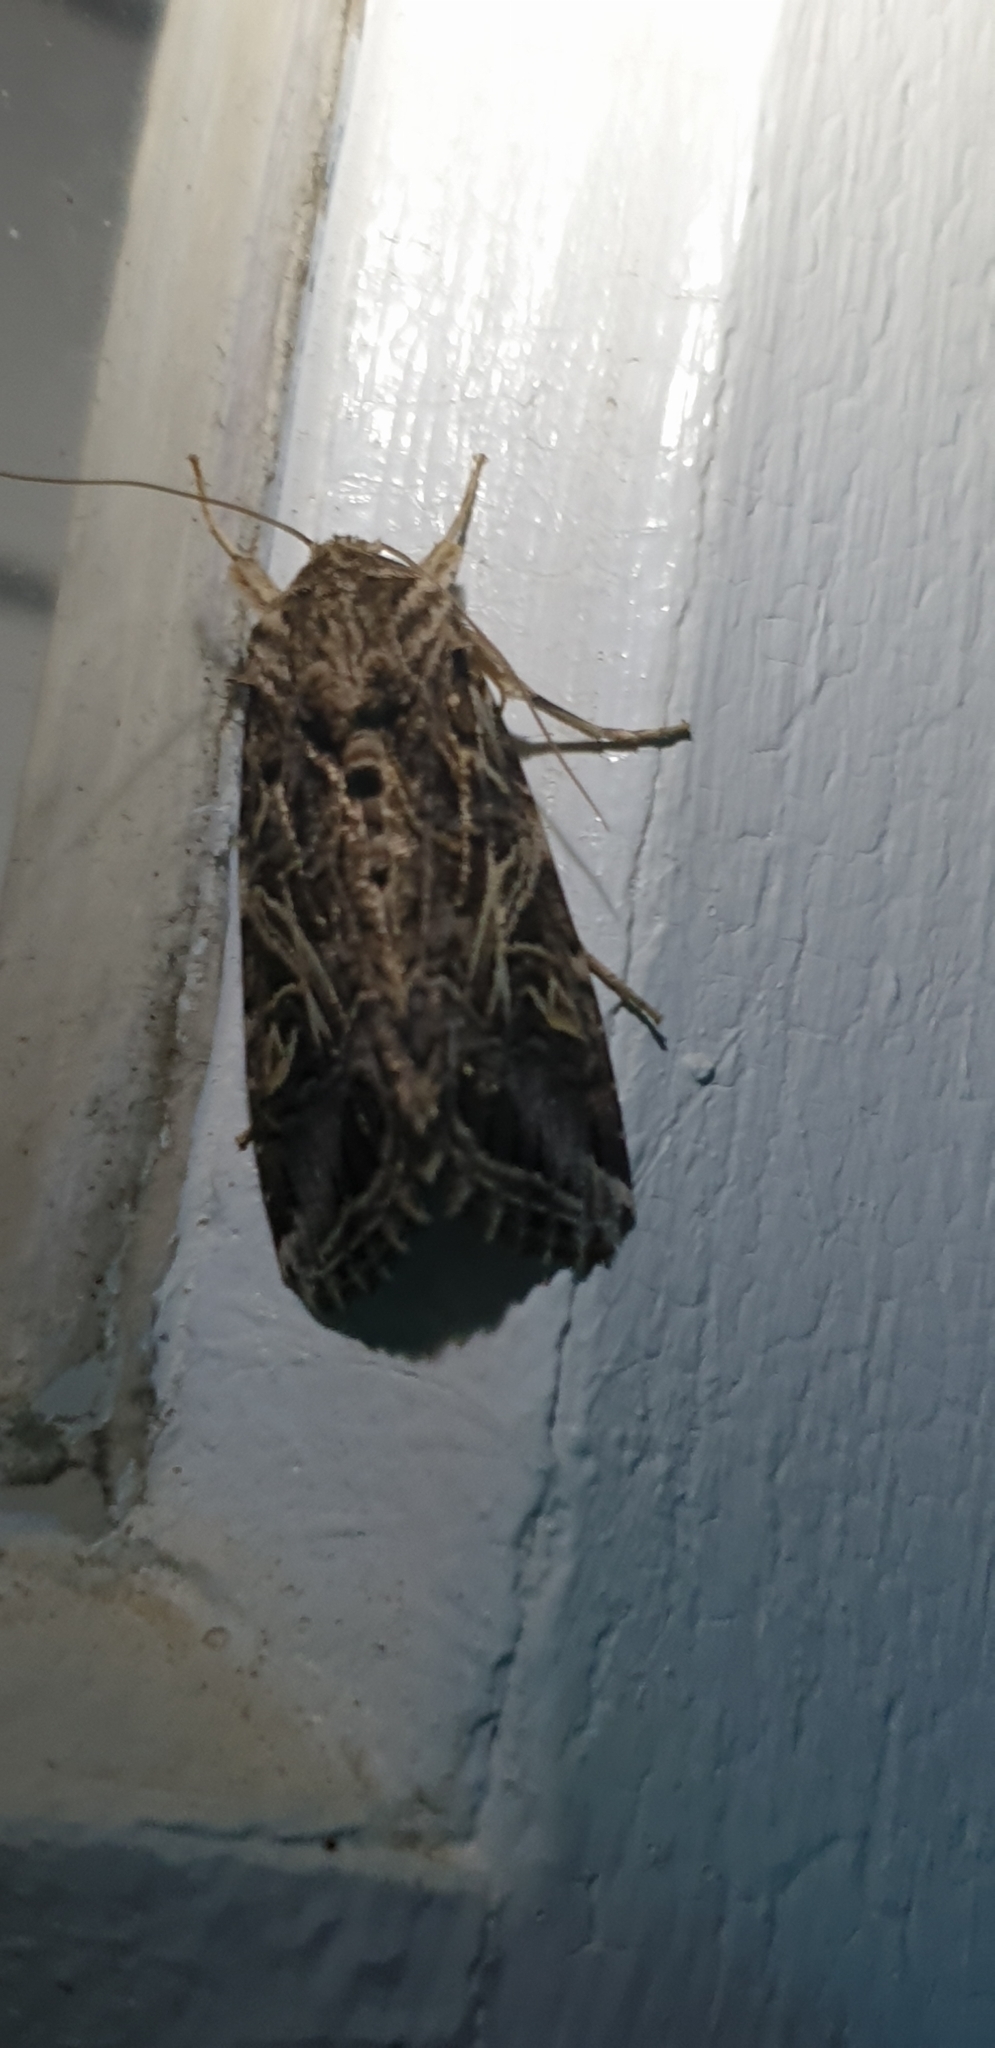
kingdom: Animalia
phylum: Arthropoda
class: Insecta
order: Lepidoptera
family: Noctuidae
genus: Spodoptera
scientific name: Spodoptera litura
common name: Asian cotton leafworm
